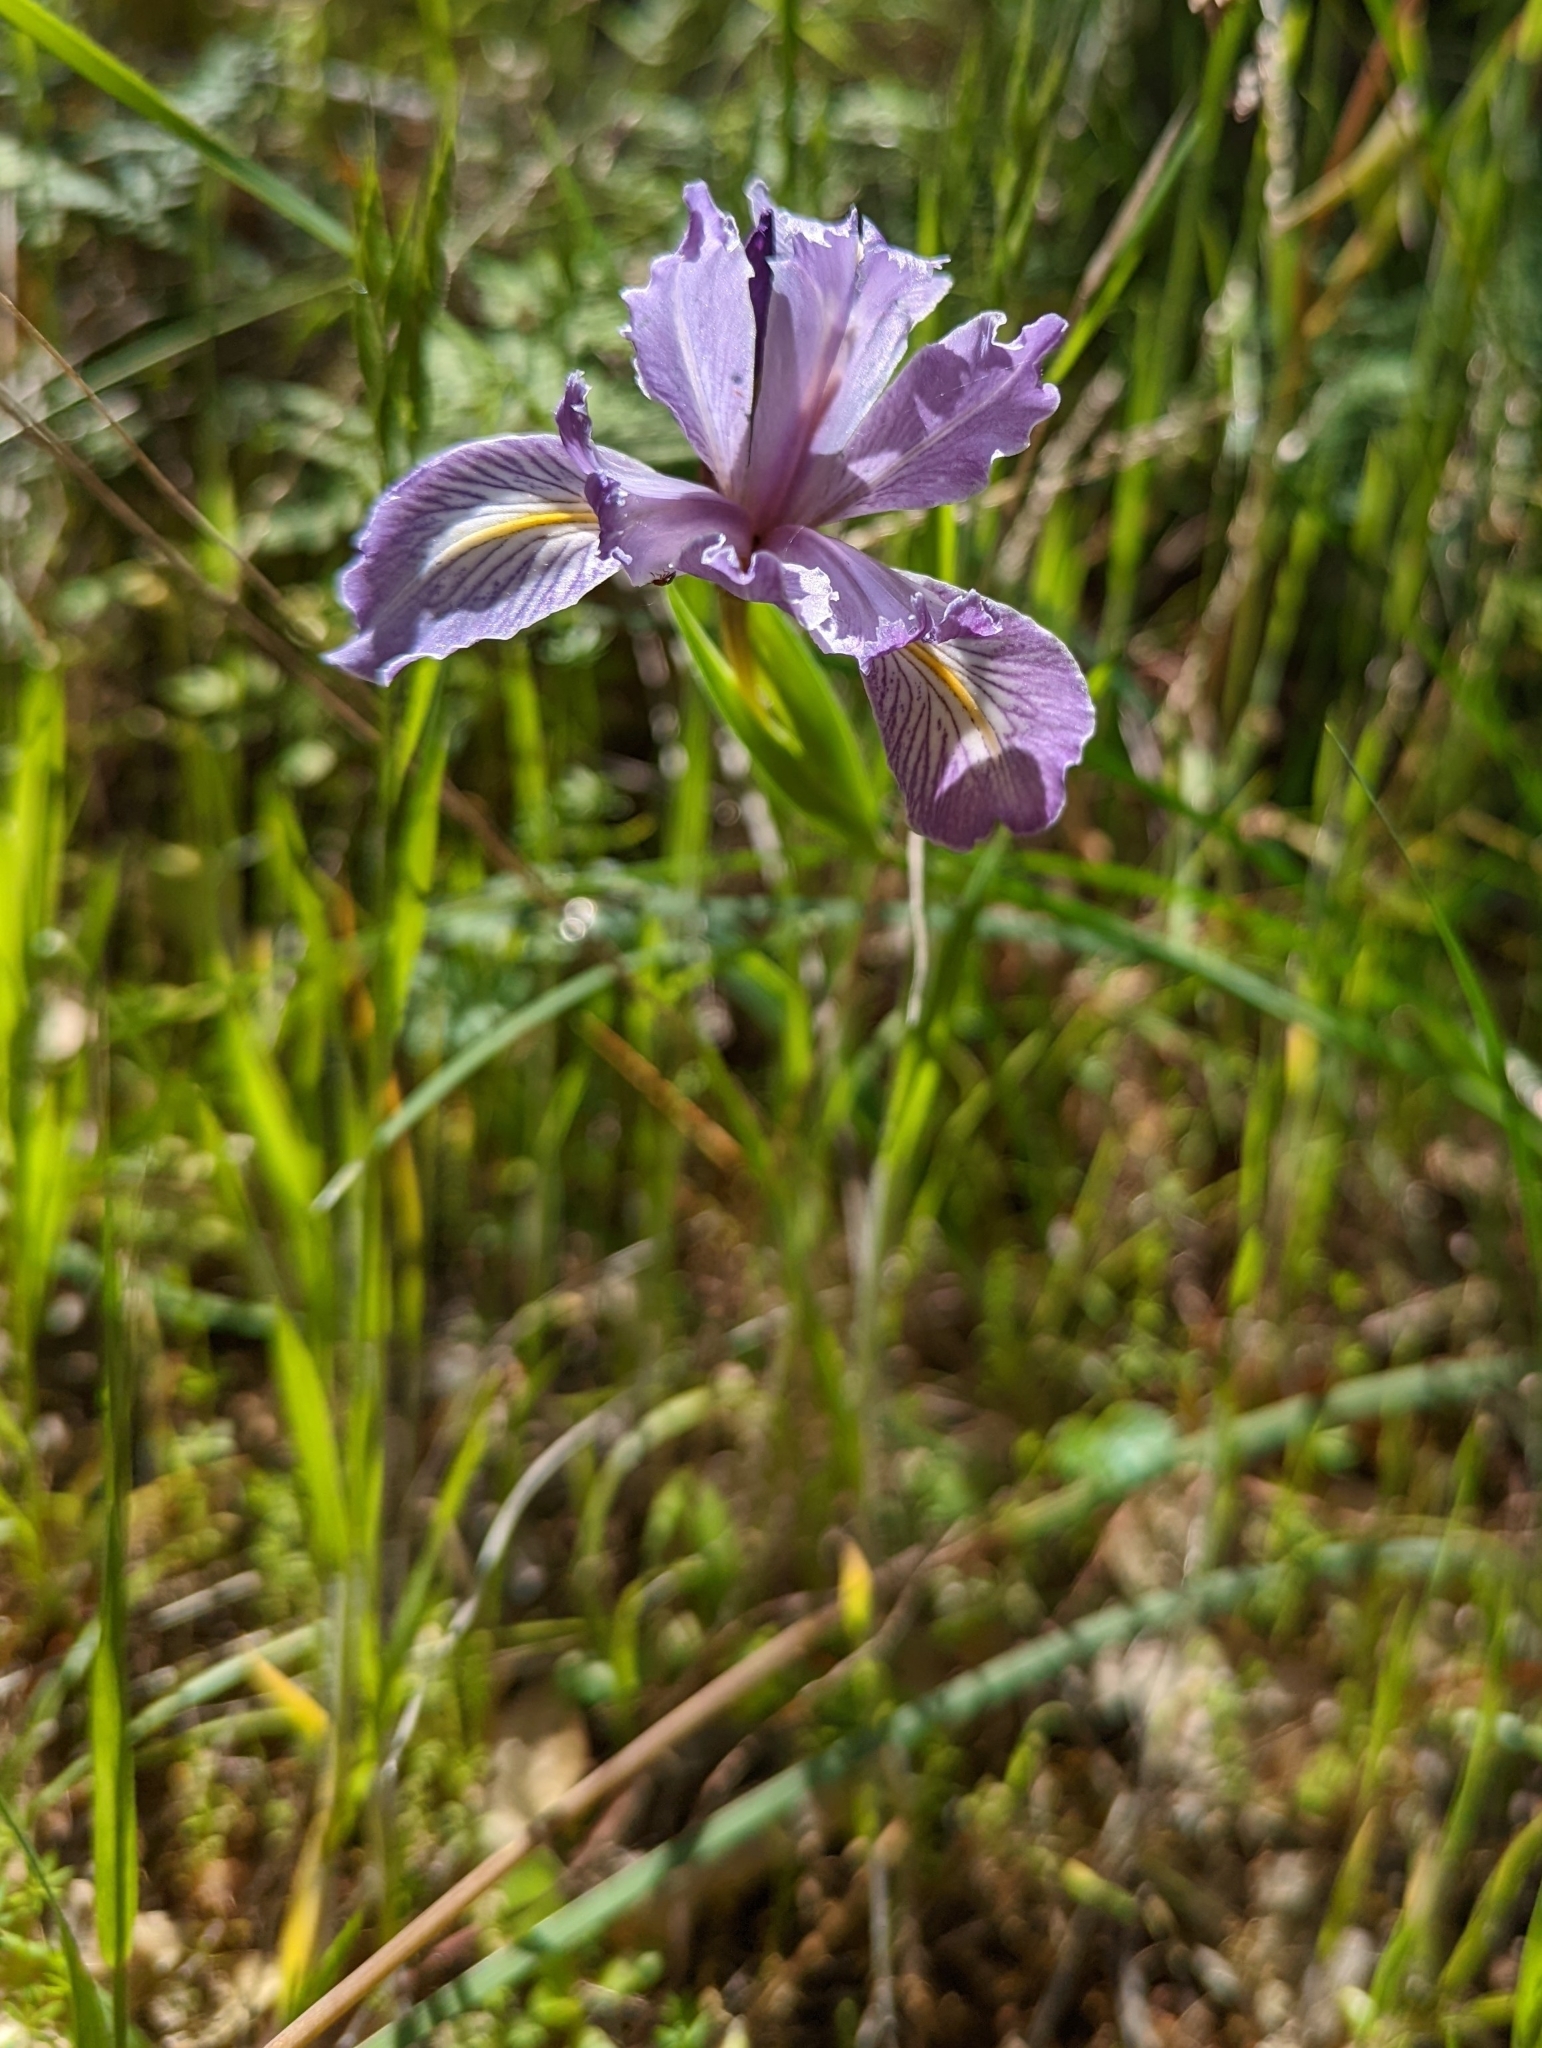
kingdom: Plantae
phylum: Tracheophyta
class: Liliopsida
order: Asparagales
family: Iridaceae
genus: Iris
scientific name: Iris macrosiphon
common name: Ground iris
